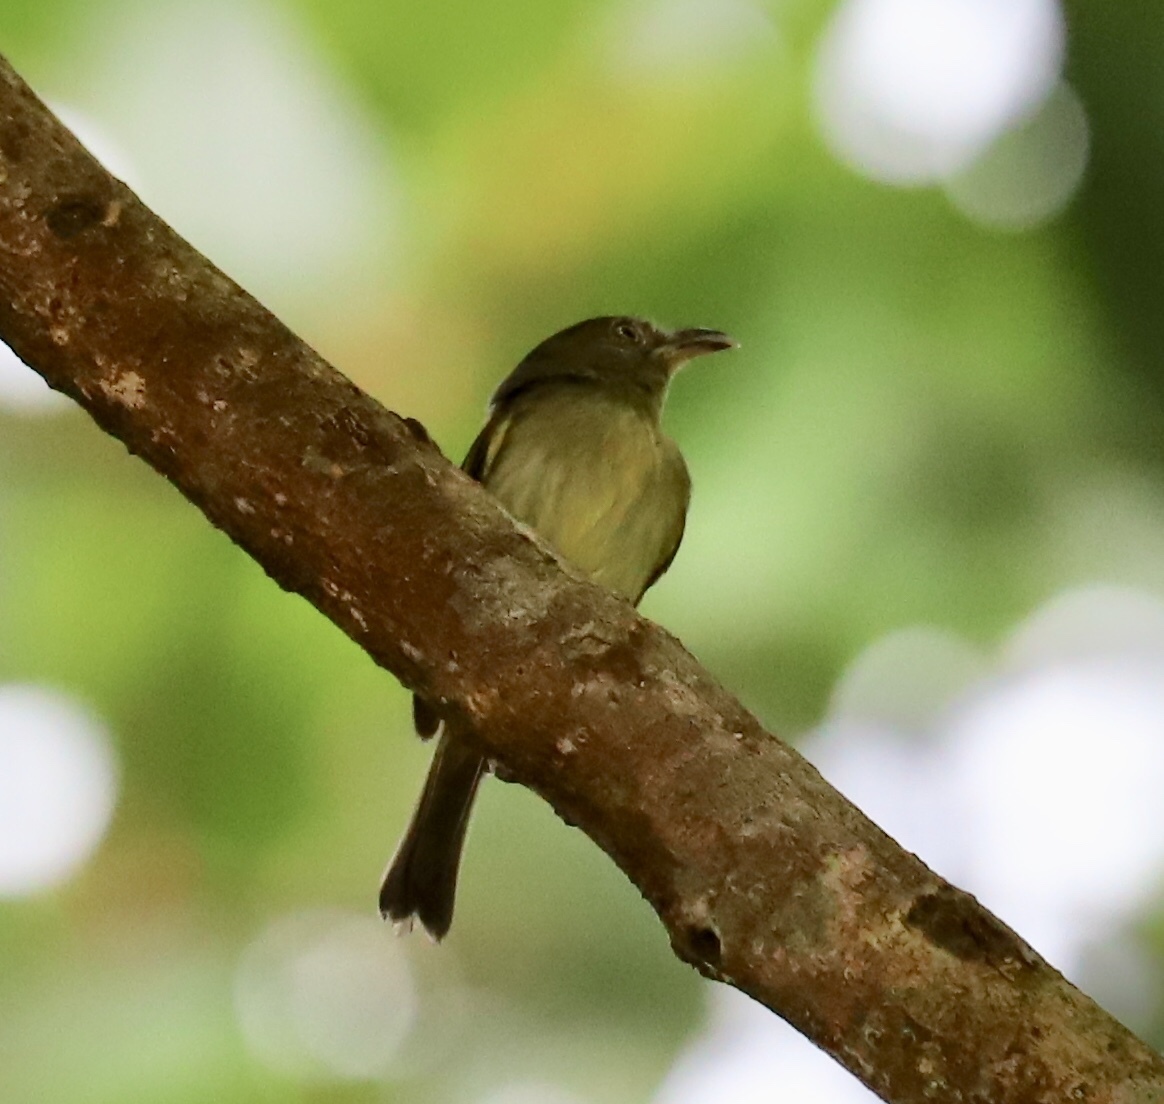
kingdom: Animalia
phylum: Chordata
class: Aves
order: Passeriformes
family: Tyrannidae
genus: Oncostoma
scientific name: Oncostoma olivaceum
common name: Southern bentbill
